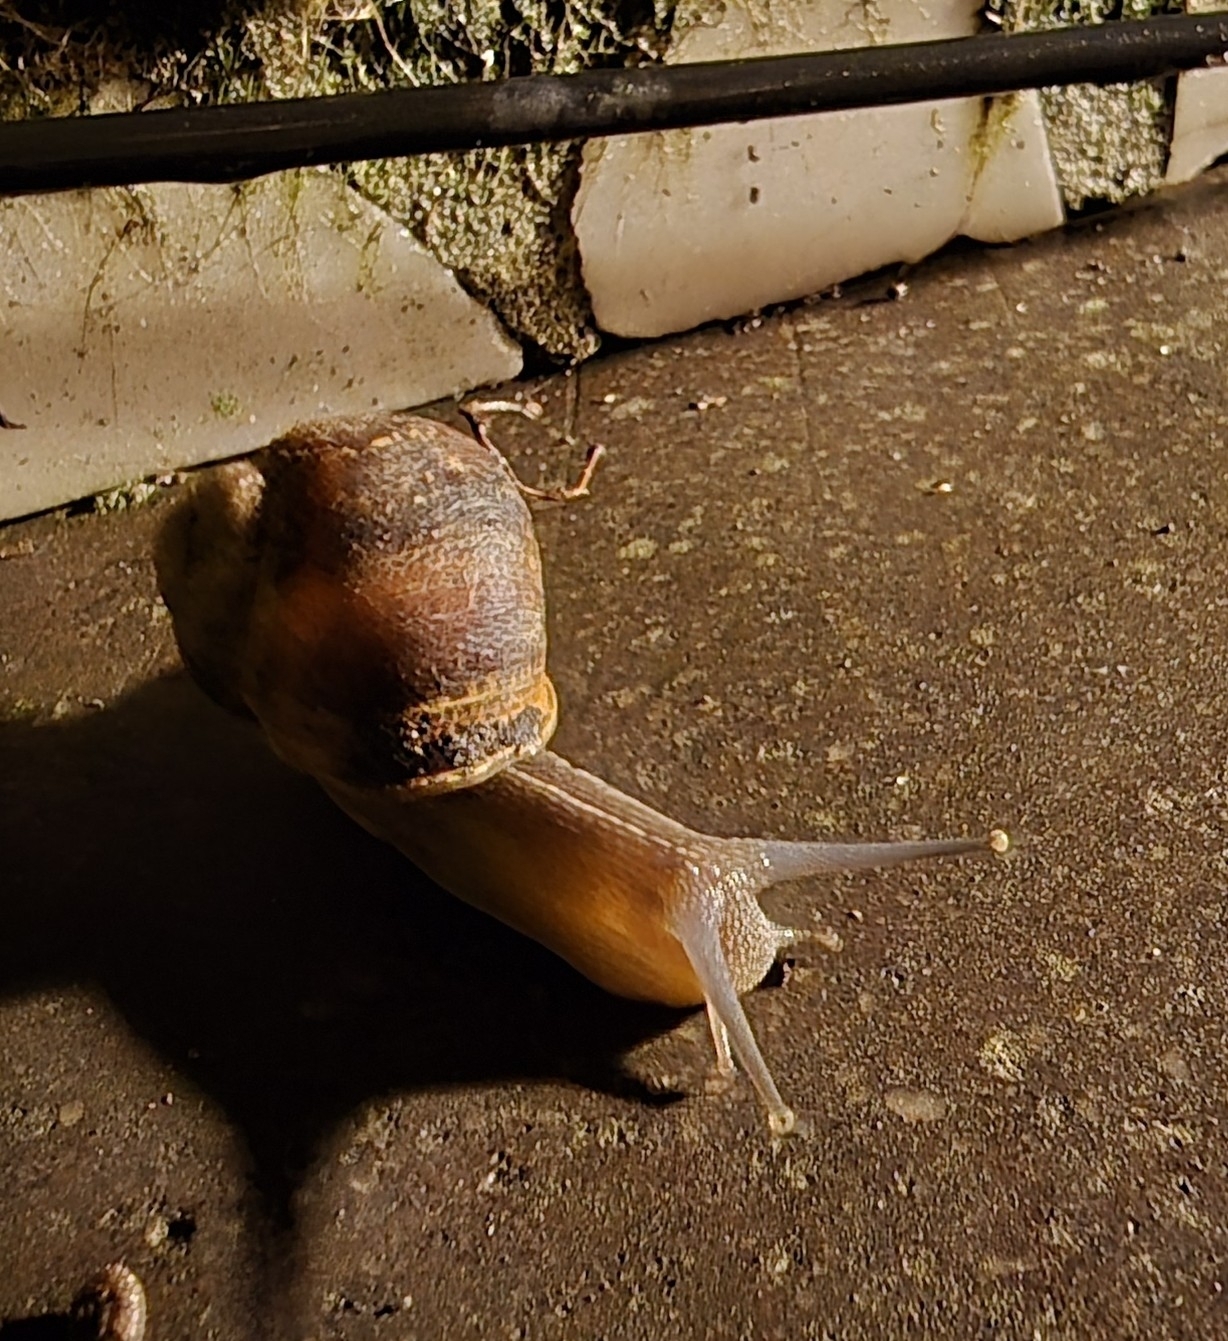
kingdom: Animalia
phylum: Mollusca
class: Gastropoda
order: Stylommatophora
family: Helicidae
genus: Cornu
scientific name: Cornu aspersum
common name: Brown garden snail
